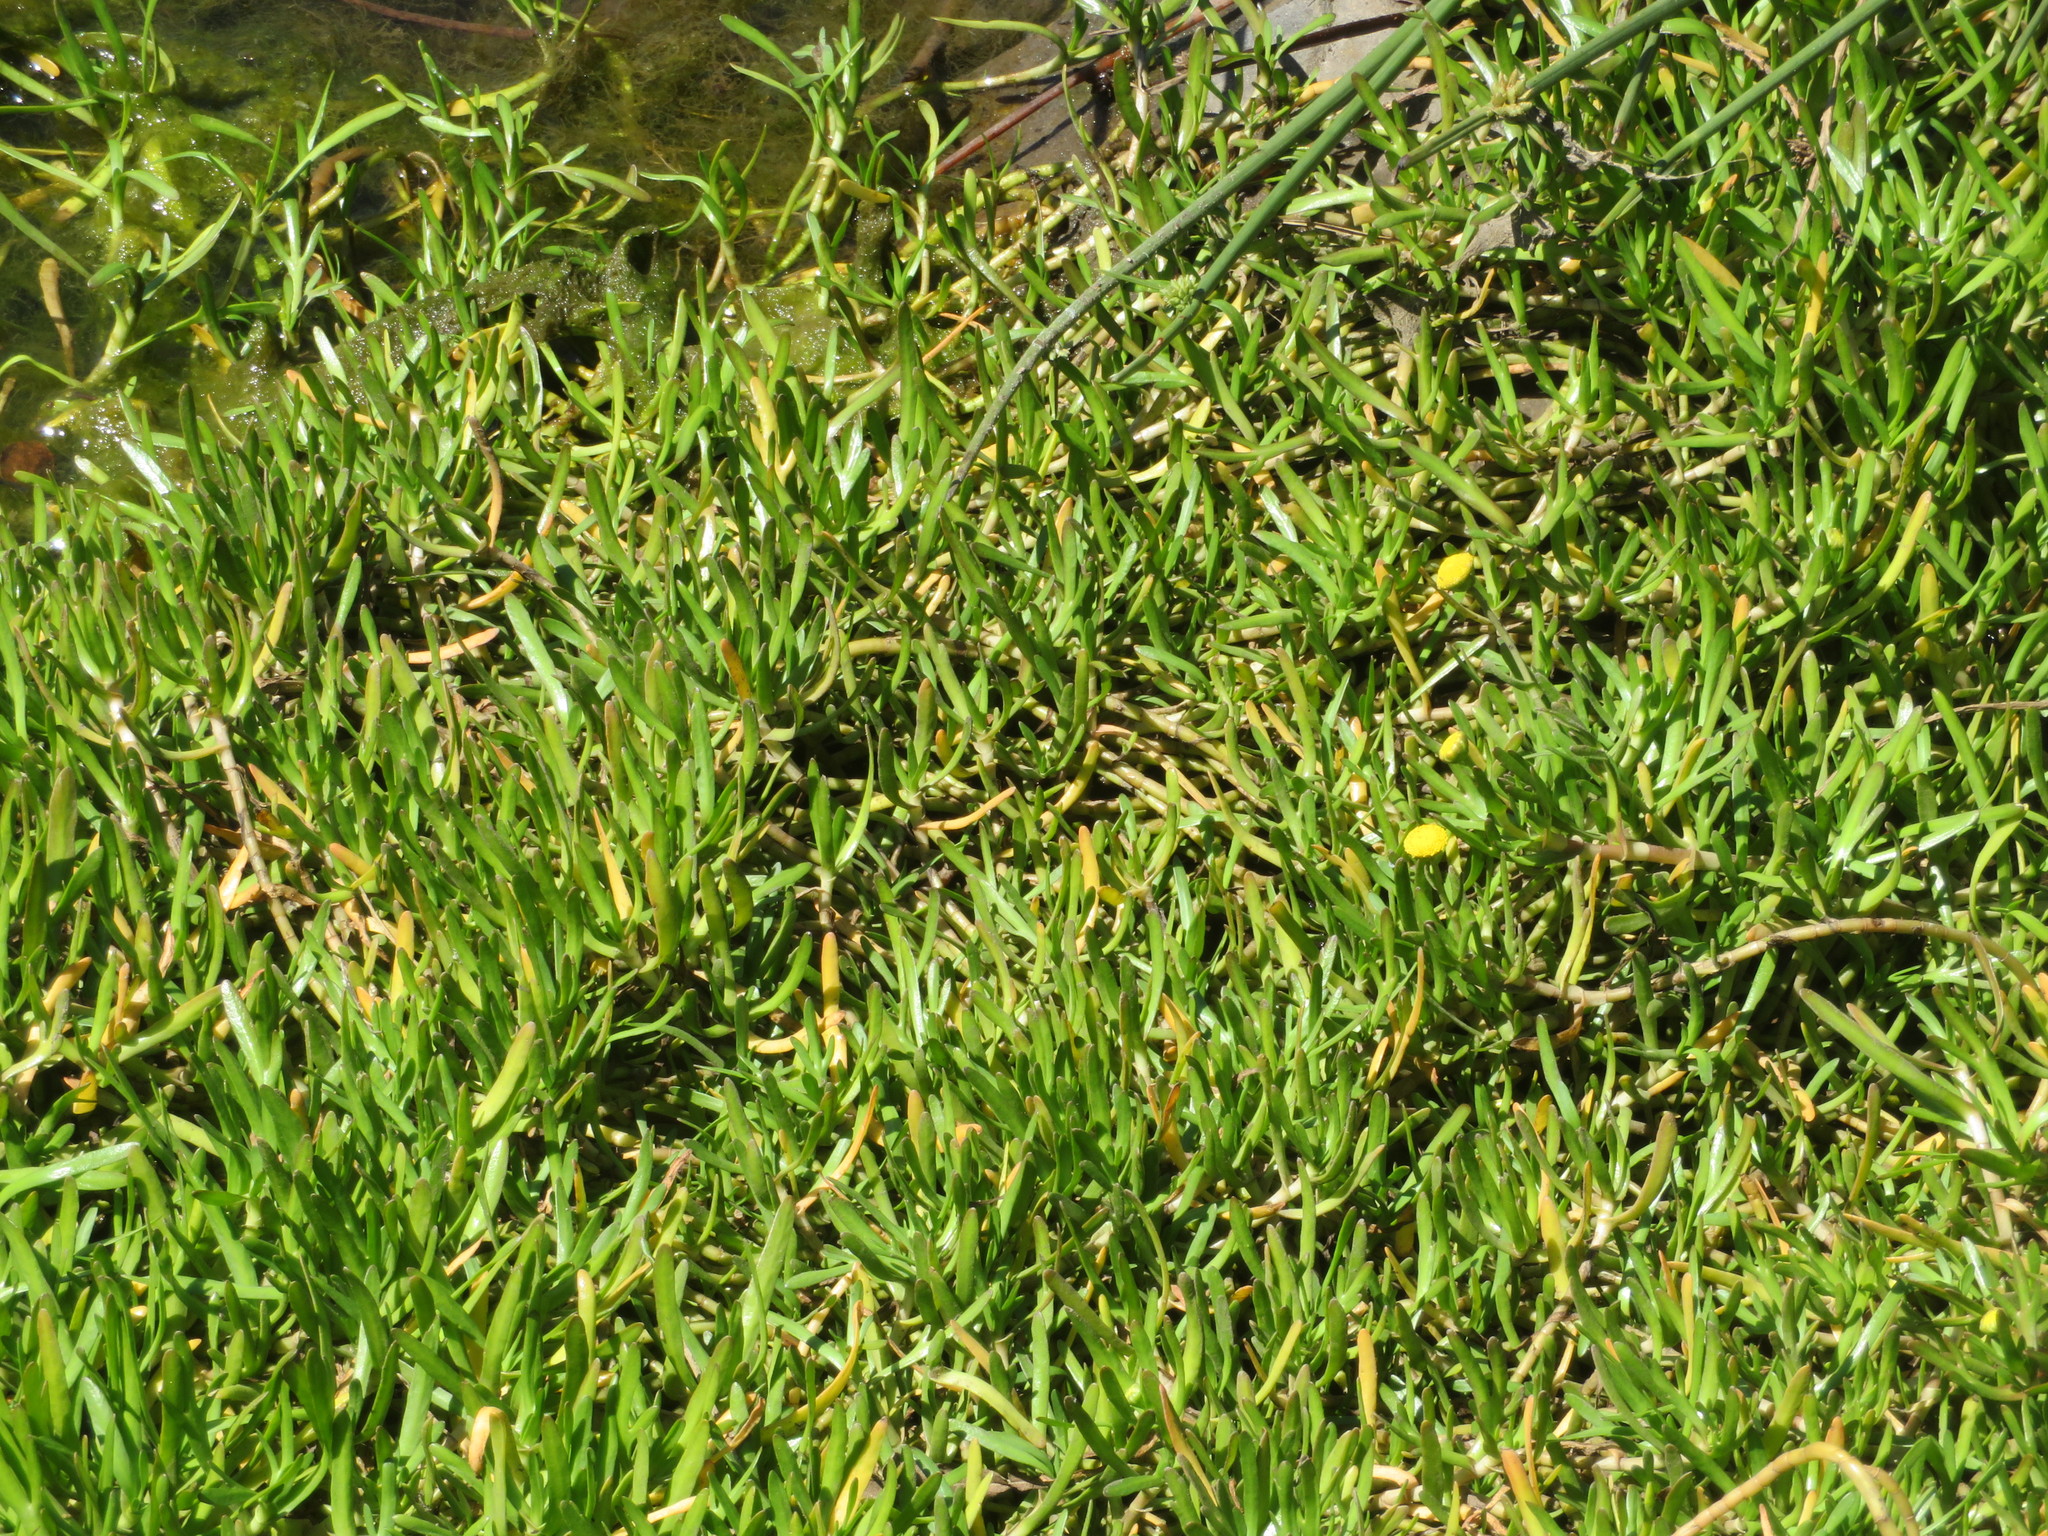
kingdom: Plantae
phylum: Tracheophyta
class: Magnoliopsida
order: Asterales
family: Asteraceae
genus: Cotula
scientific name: Cotula coronopifolia
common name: Buttonweed
